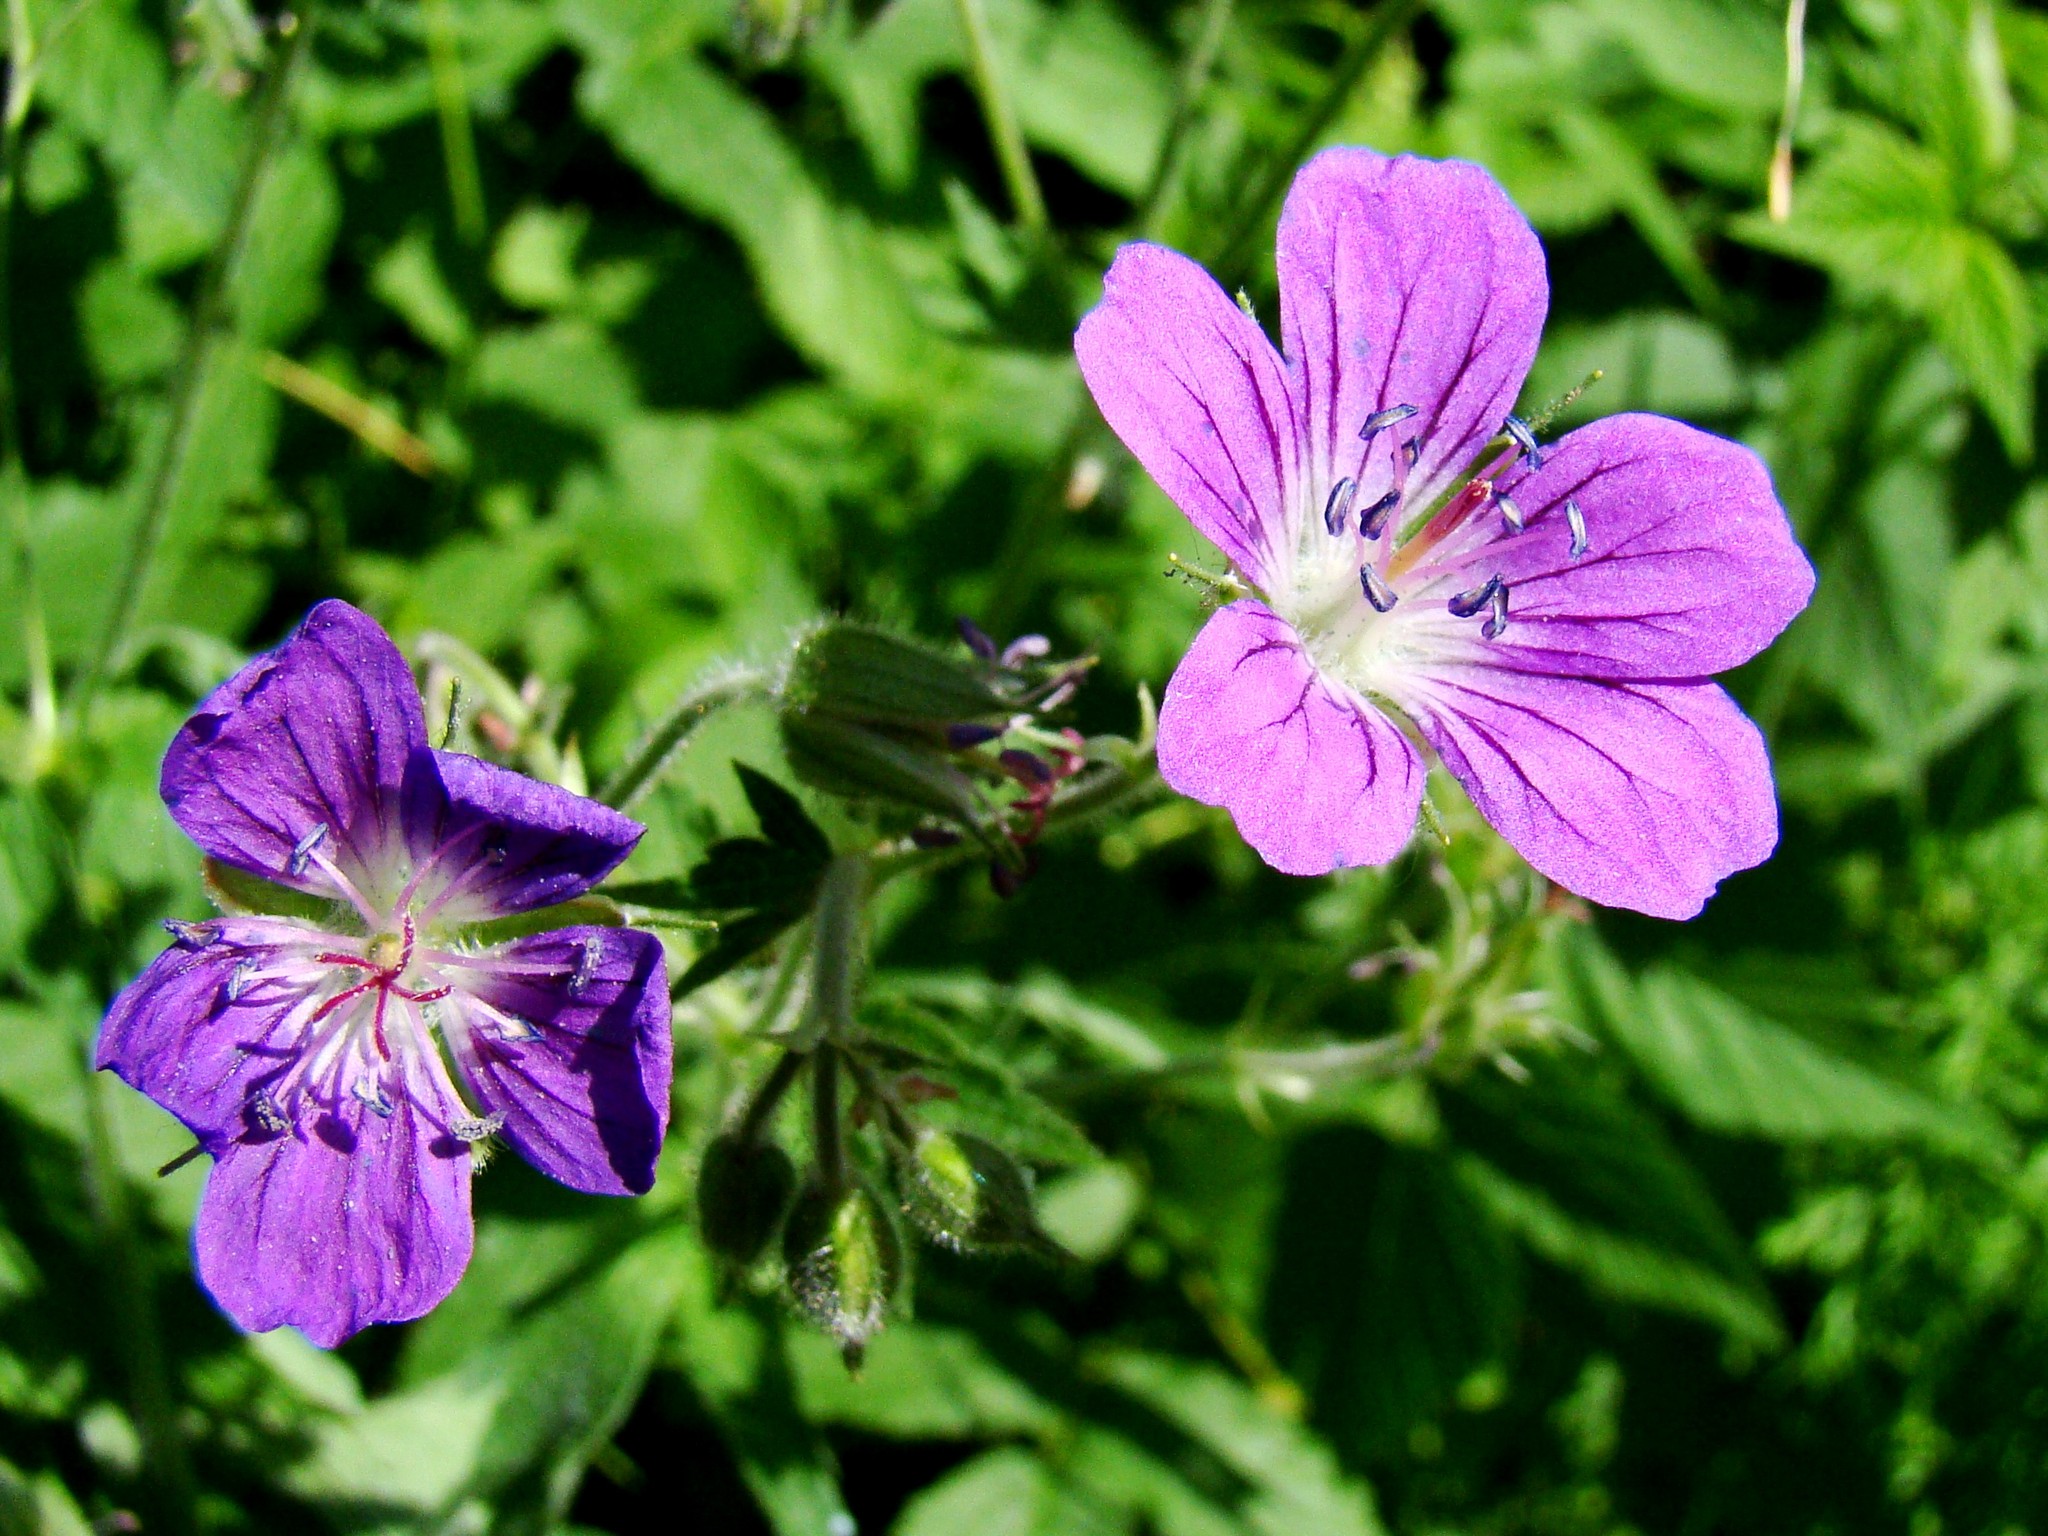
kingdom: Plantae
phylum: Tracheophyta
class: Magnoliopsida
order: Geraniales
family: Geraniaceae
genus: Geranium
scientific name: Geranium sylvaticum
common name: Wood crane's-bill
